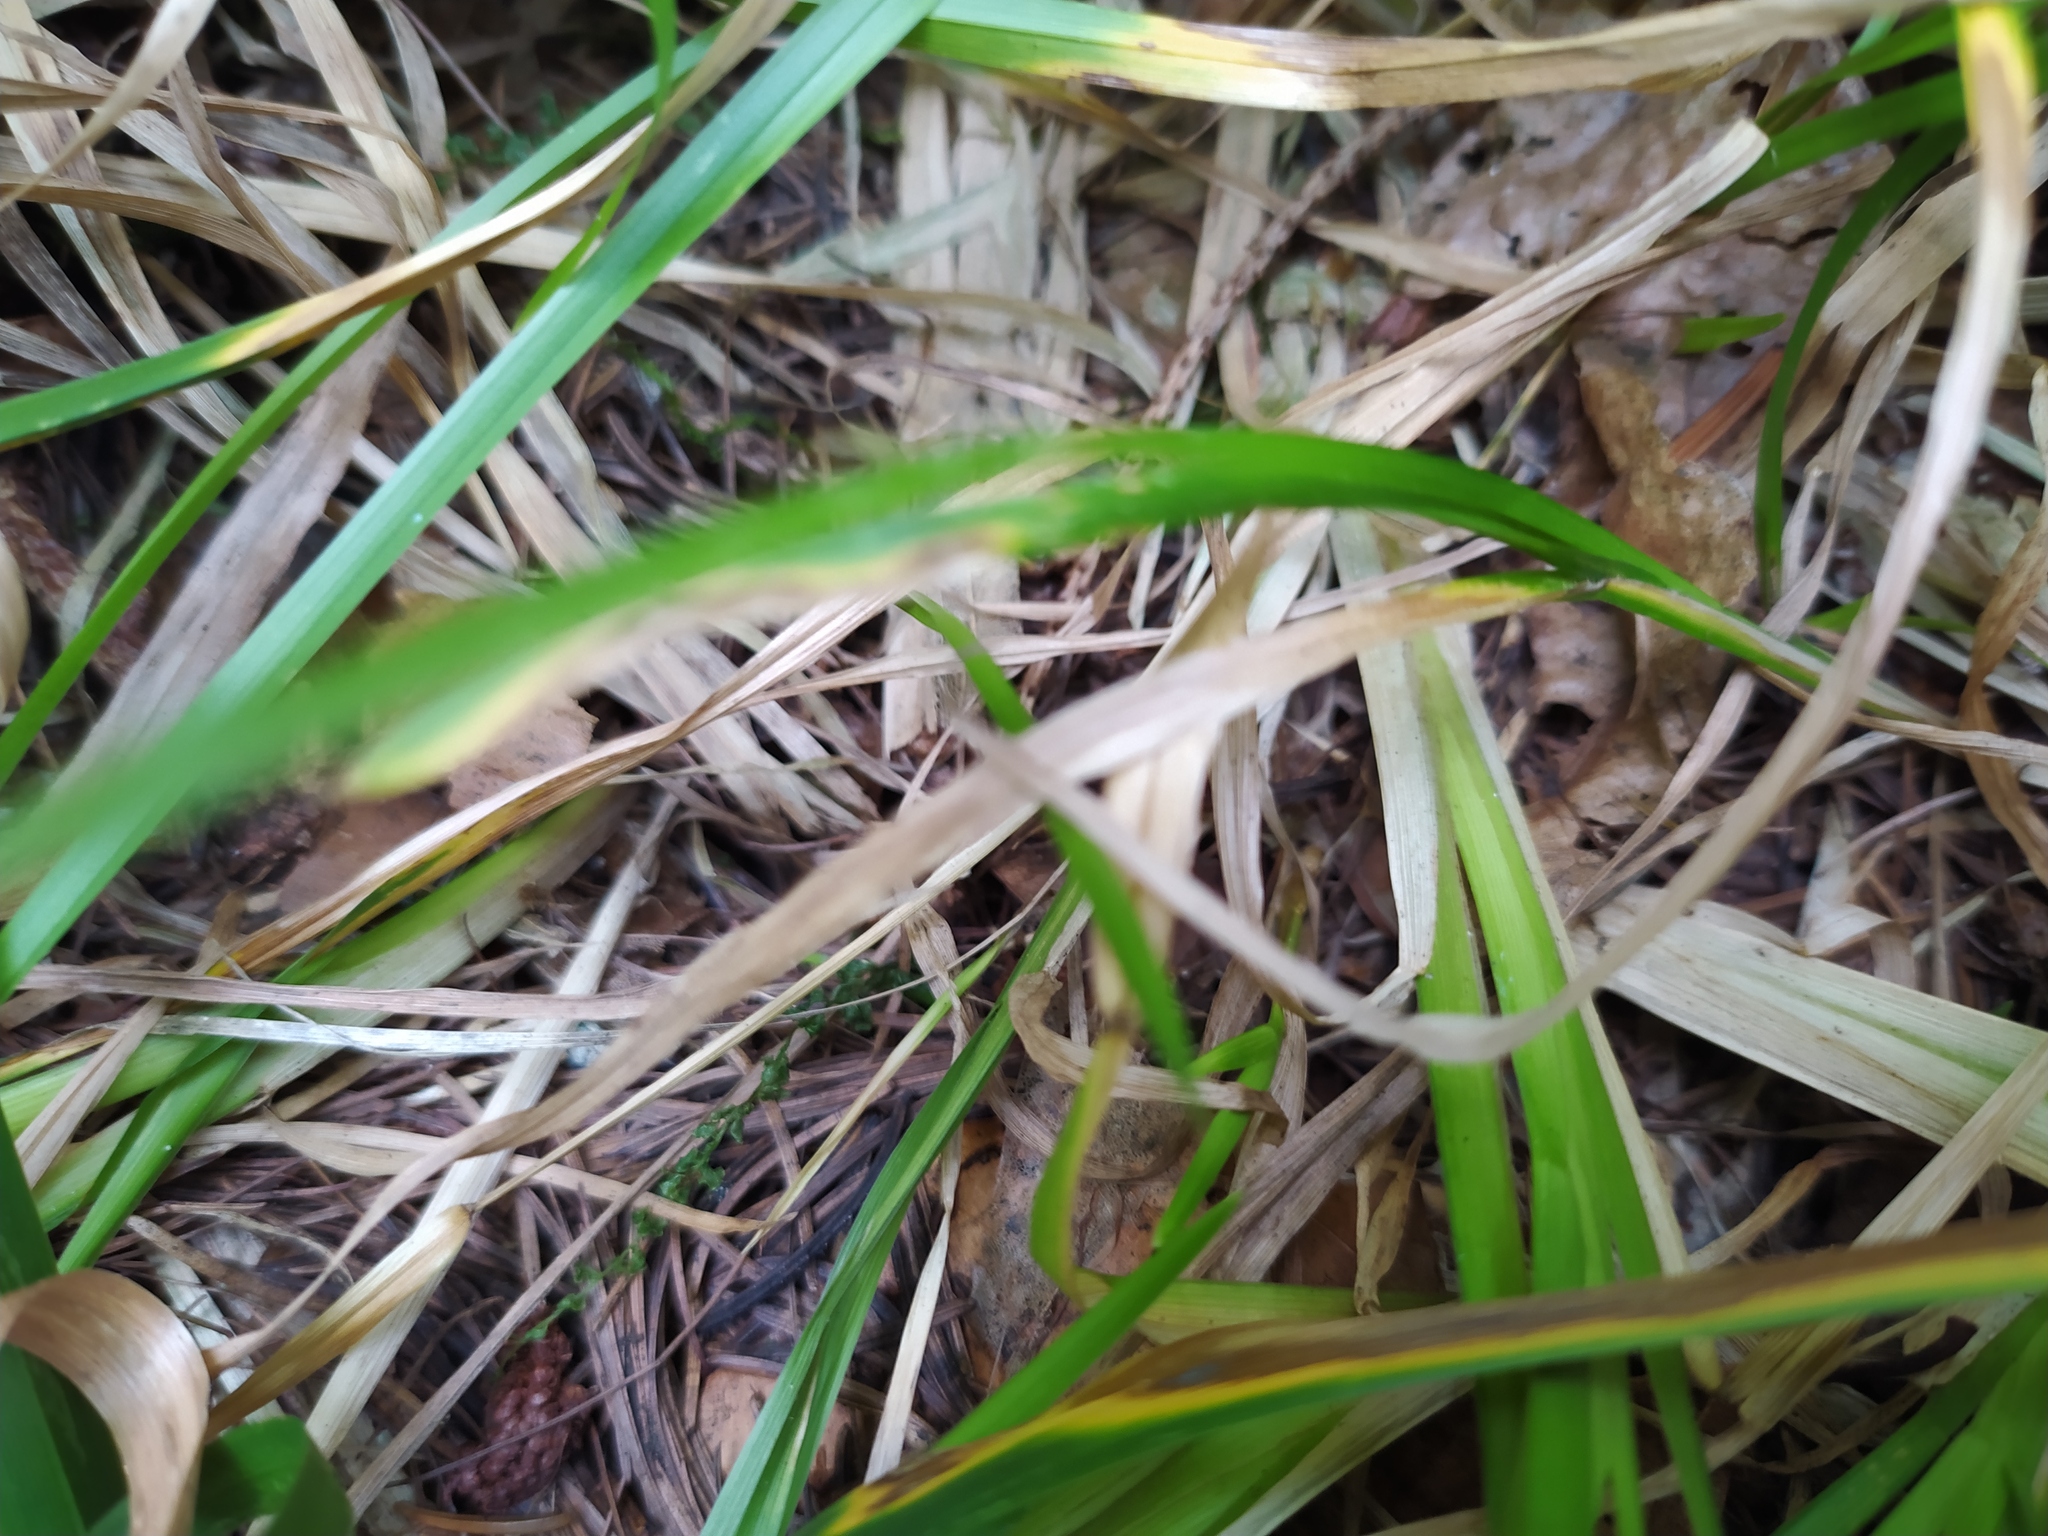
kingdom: Plantae
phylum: Tracheophyta
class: Liliopsida
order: Poales
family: Poaceae
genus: Poa
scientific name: Poa chaixii
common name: Broad-leaved meadow-grass
